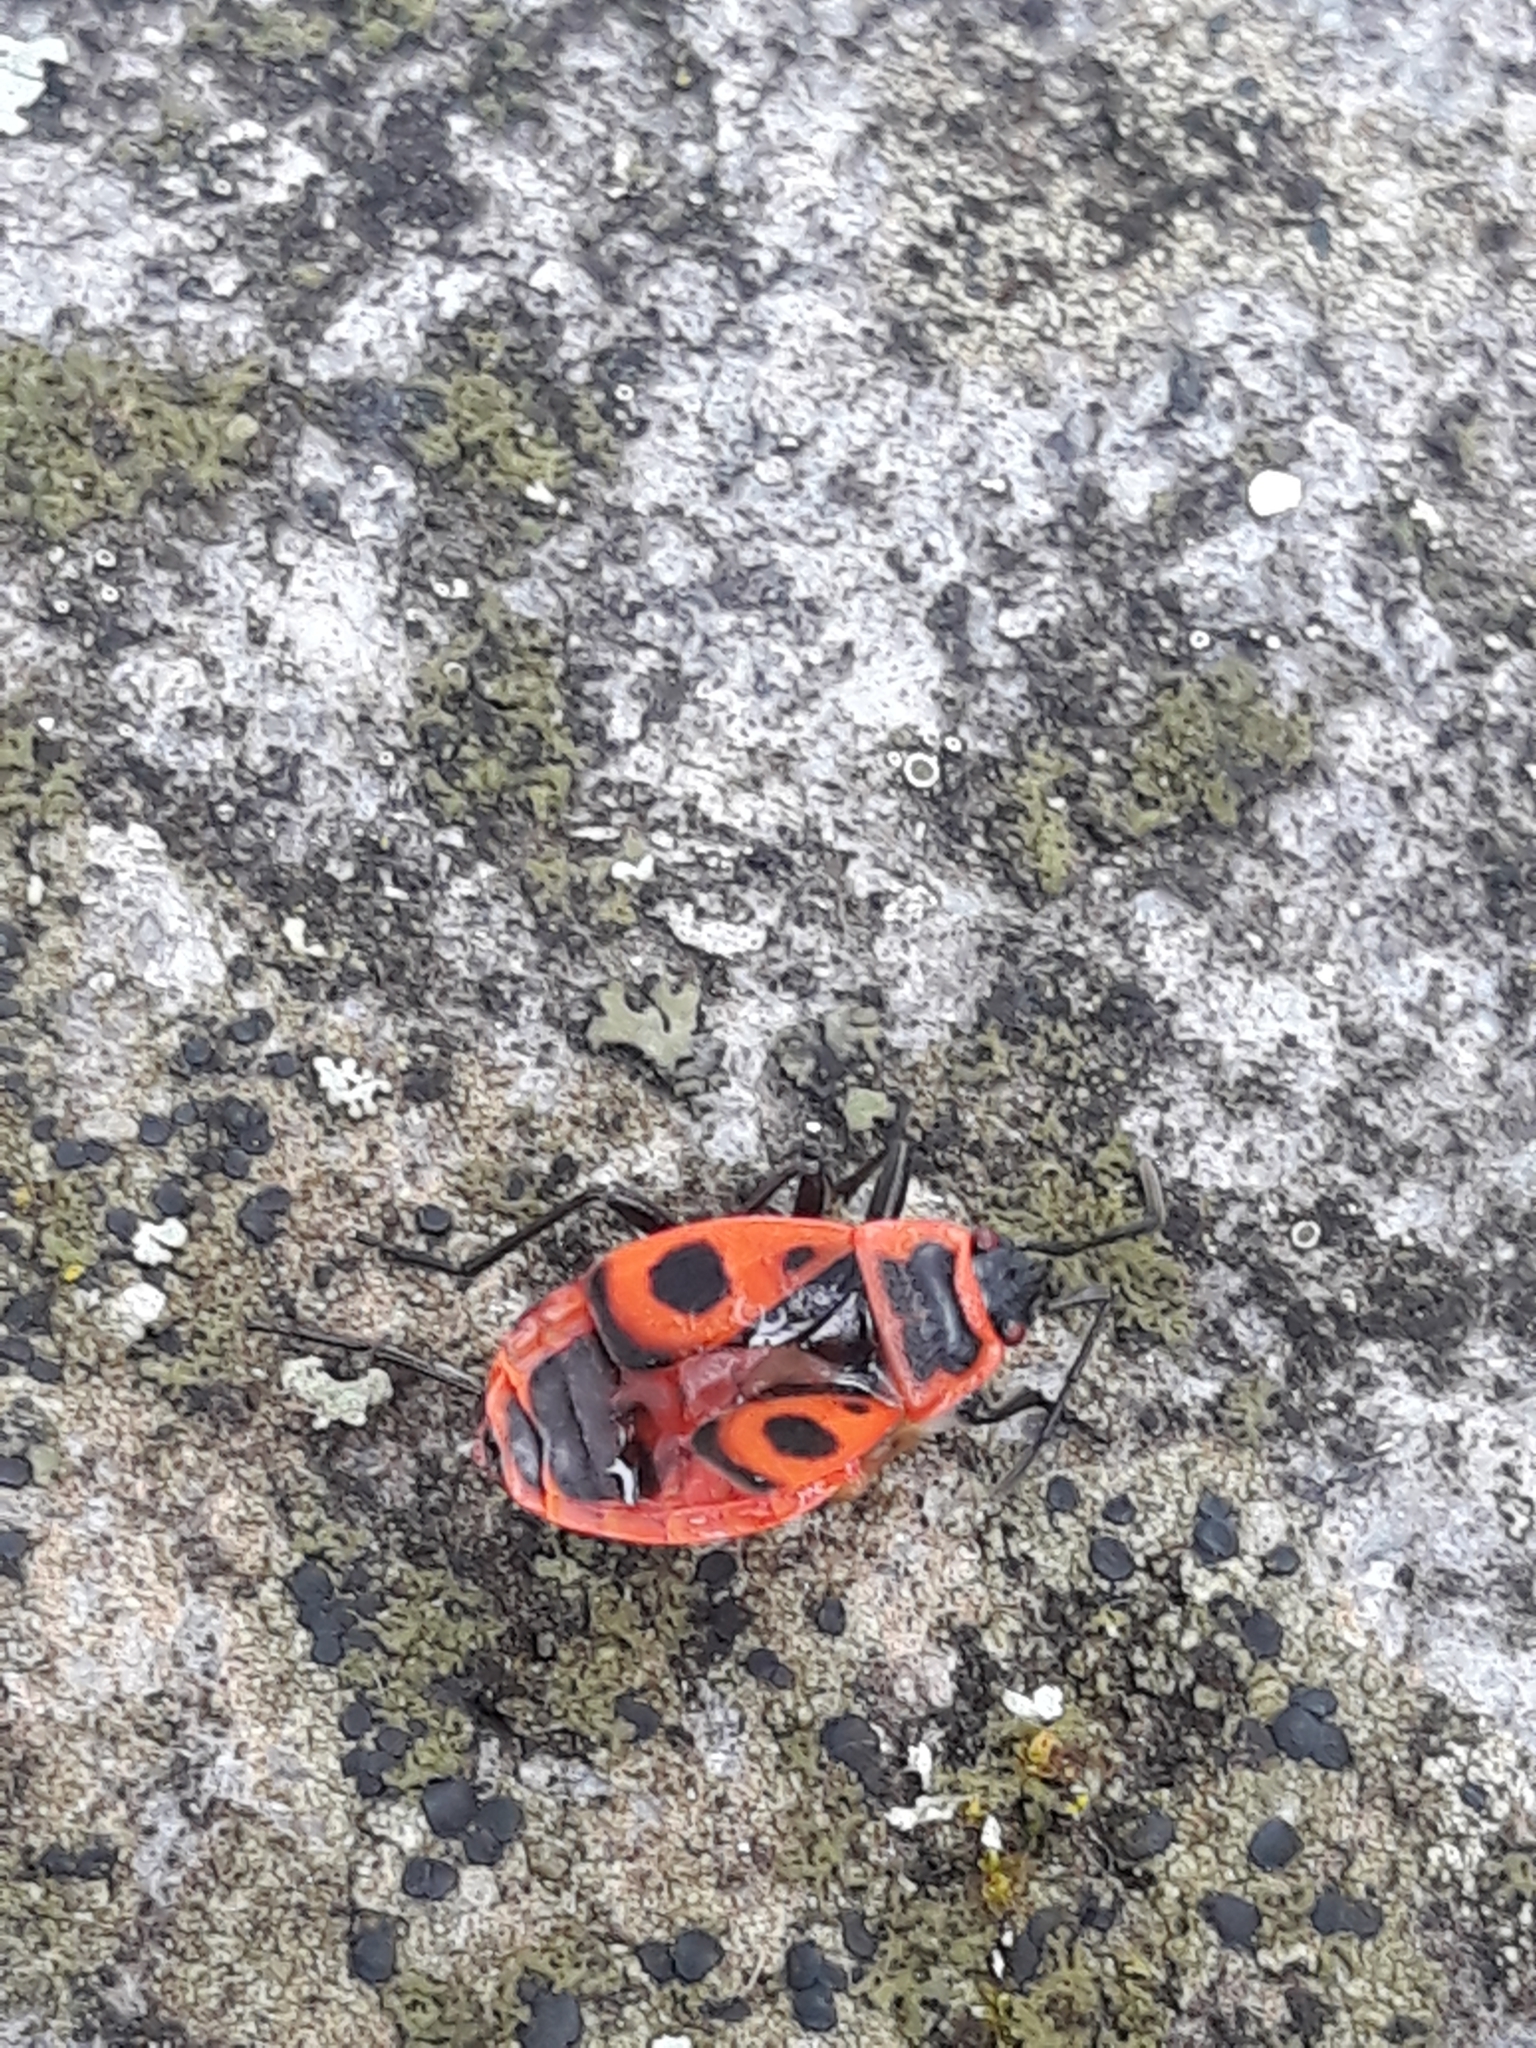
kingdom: Animalia
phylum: Arthropoda
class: Insecta
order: Hemiptera
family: Pyrrhocoridae
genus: Pyrrhocoris
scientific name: Pyrrhocoris apterus
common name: Firebug
